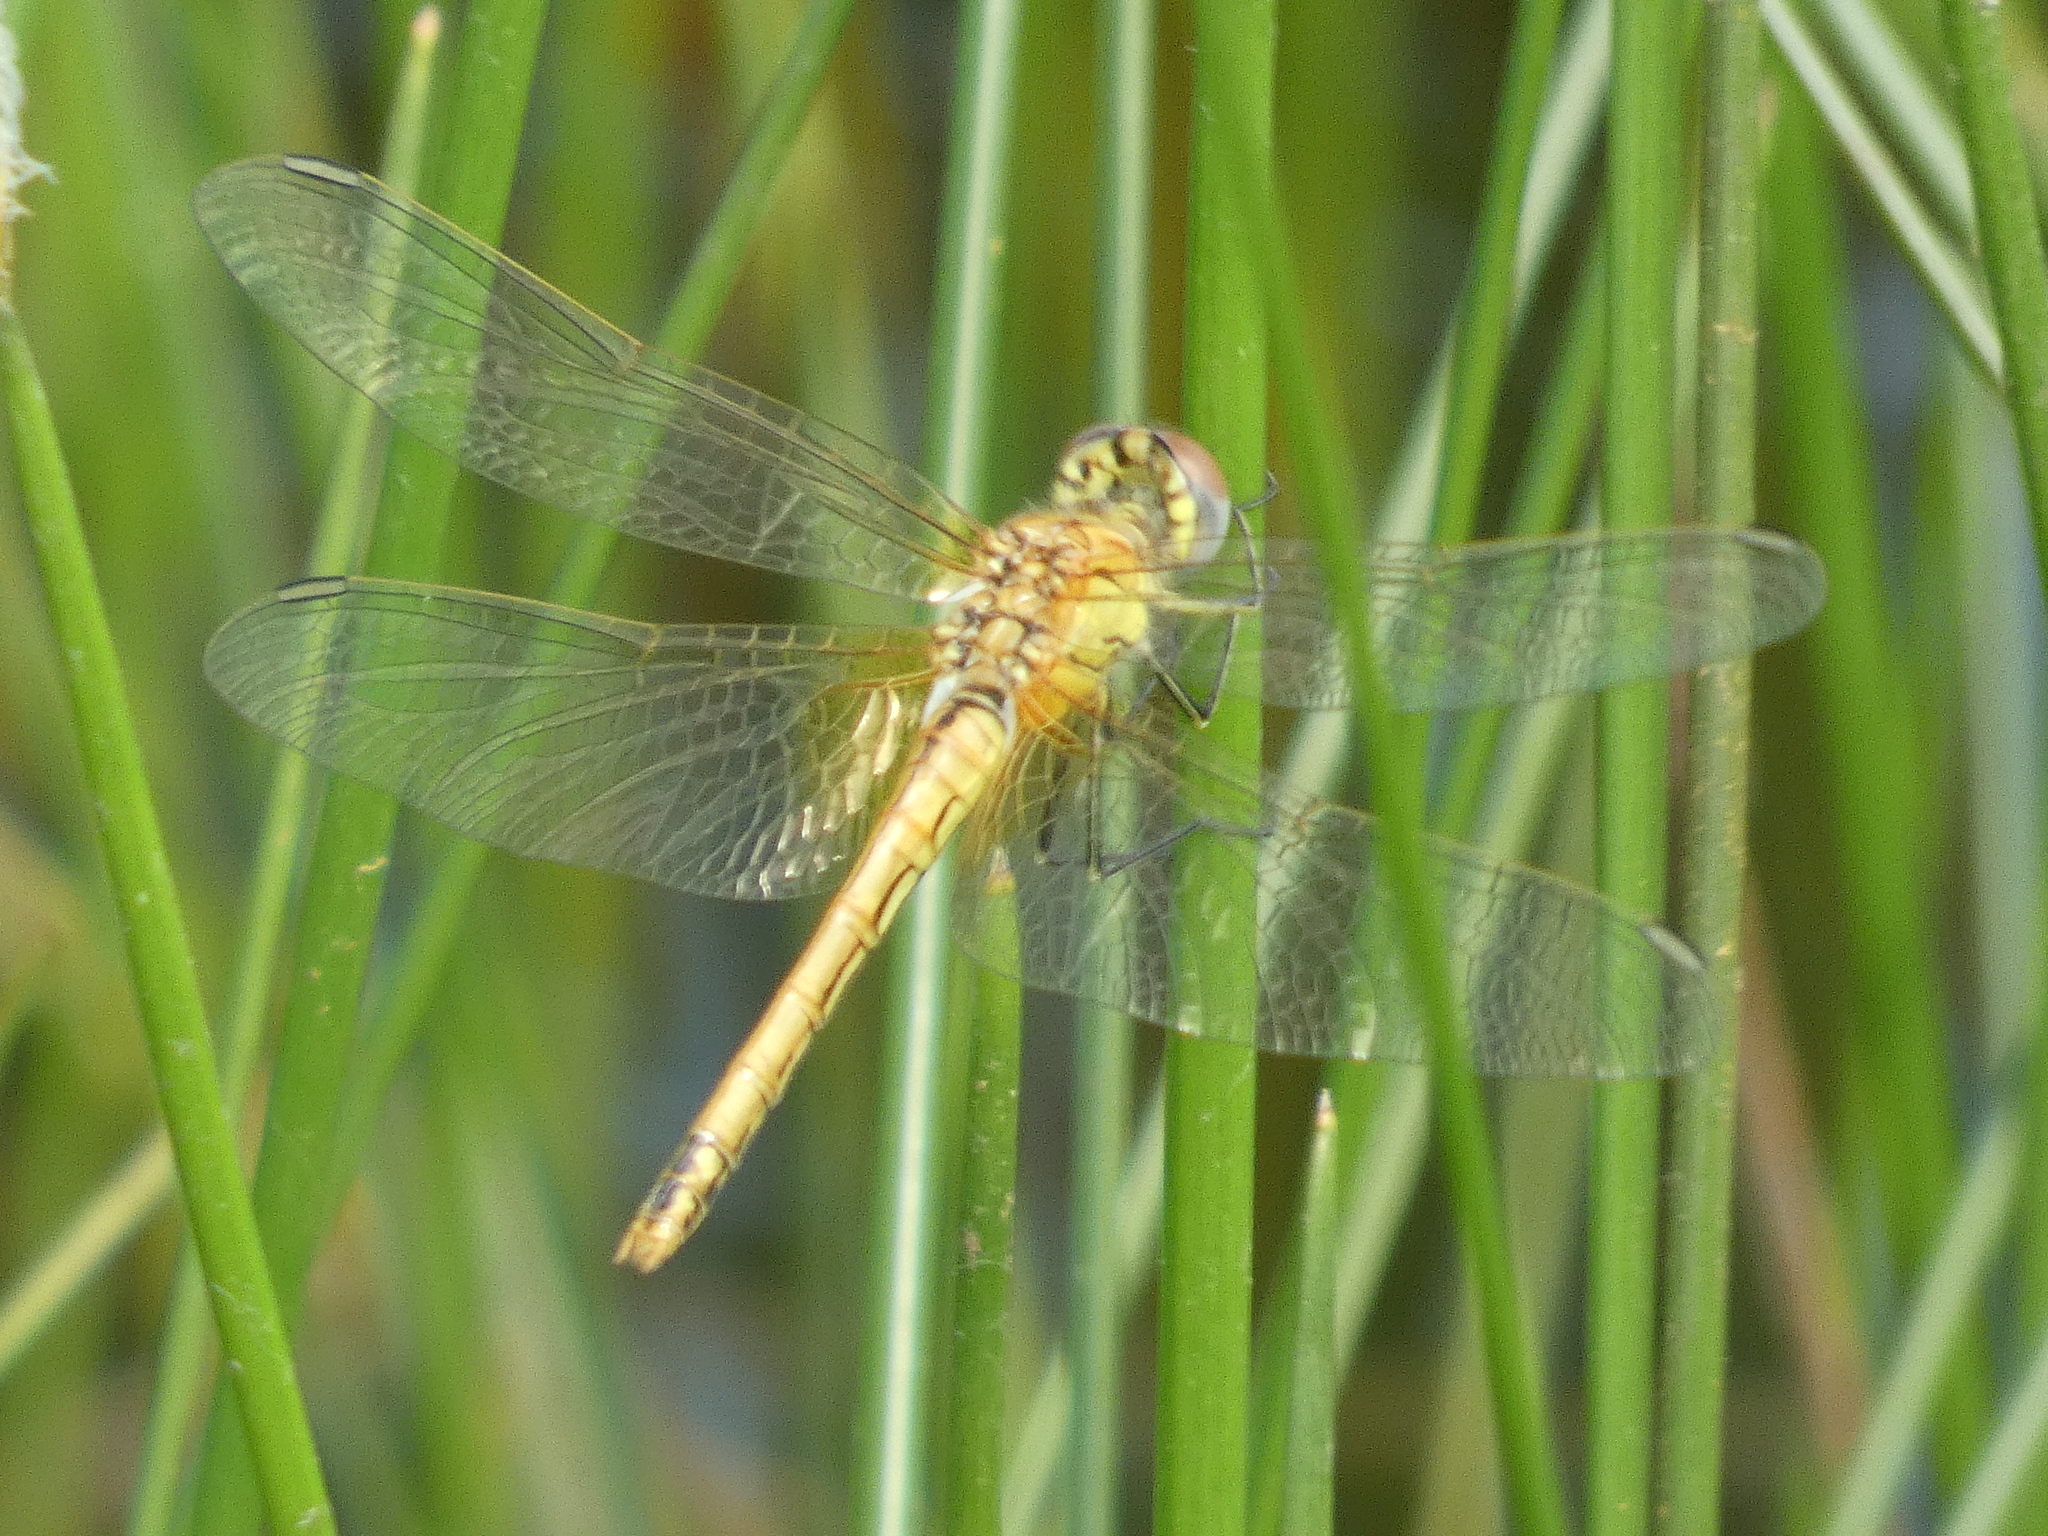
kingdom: Animalia
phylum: Arthropoda
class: Insecta
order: Odonata
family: Libellulidae
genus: Sympetrum
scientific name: Sympetrum fonscolombii
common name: Red-veined darter
